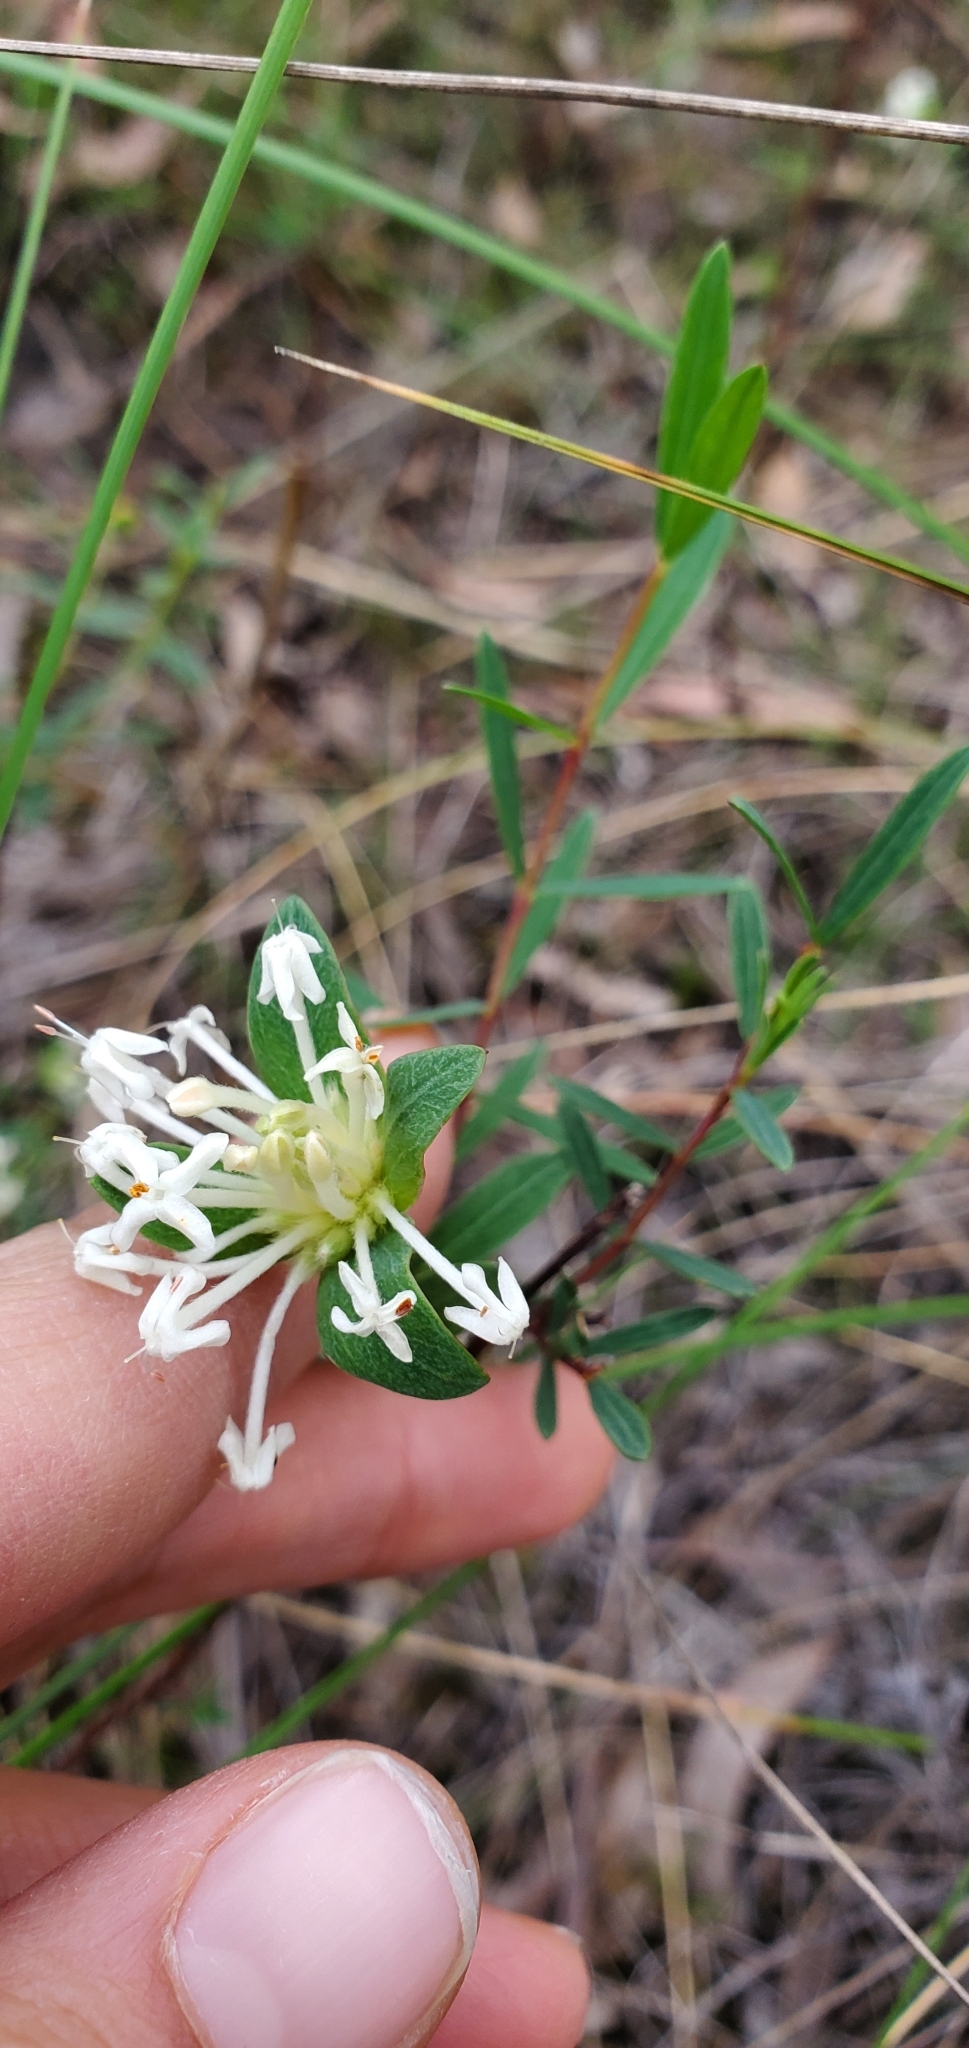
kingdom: Plantae
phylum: Tracheophyta
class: Magnoliopsida
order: Malvales
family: Thymelaeaceae
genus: Pimelea
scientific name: Pimelea linifolia
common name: Queen-of-the-bush
